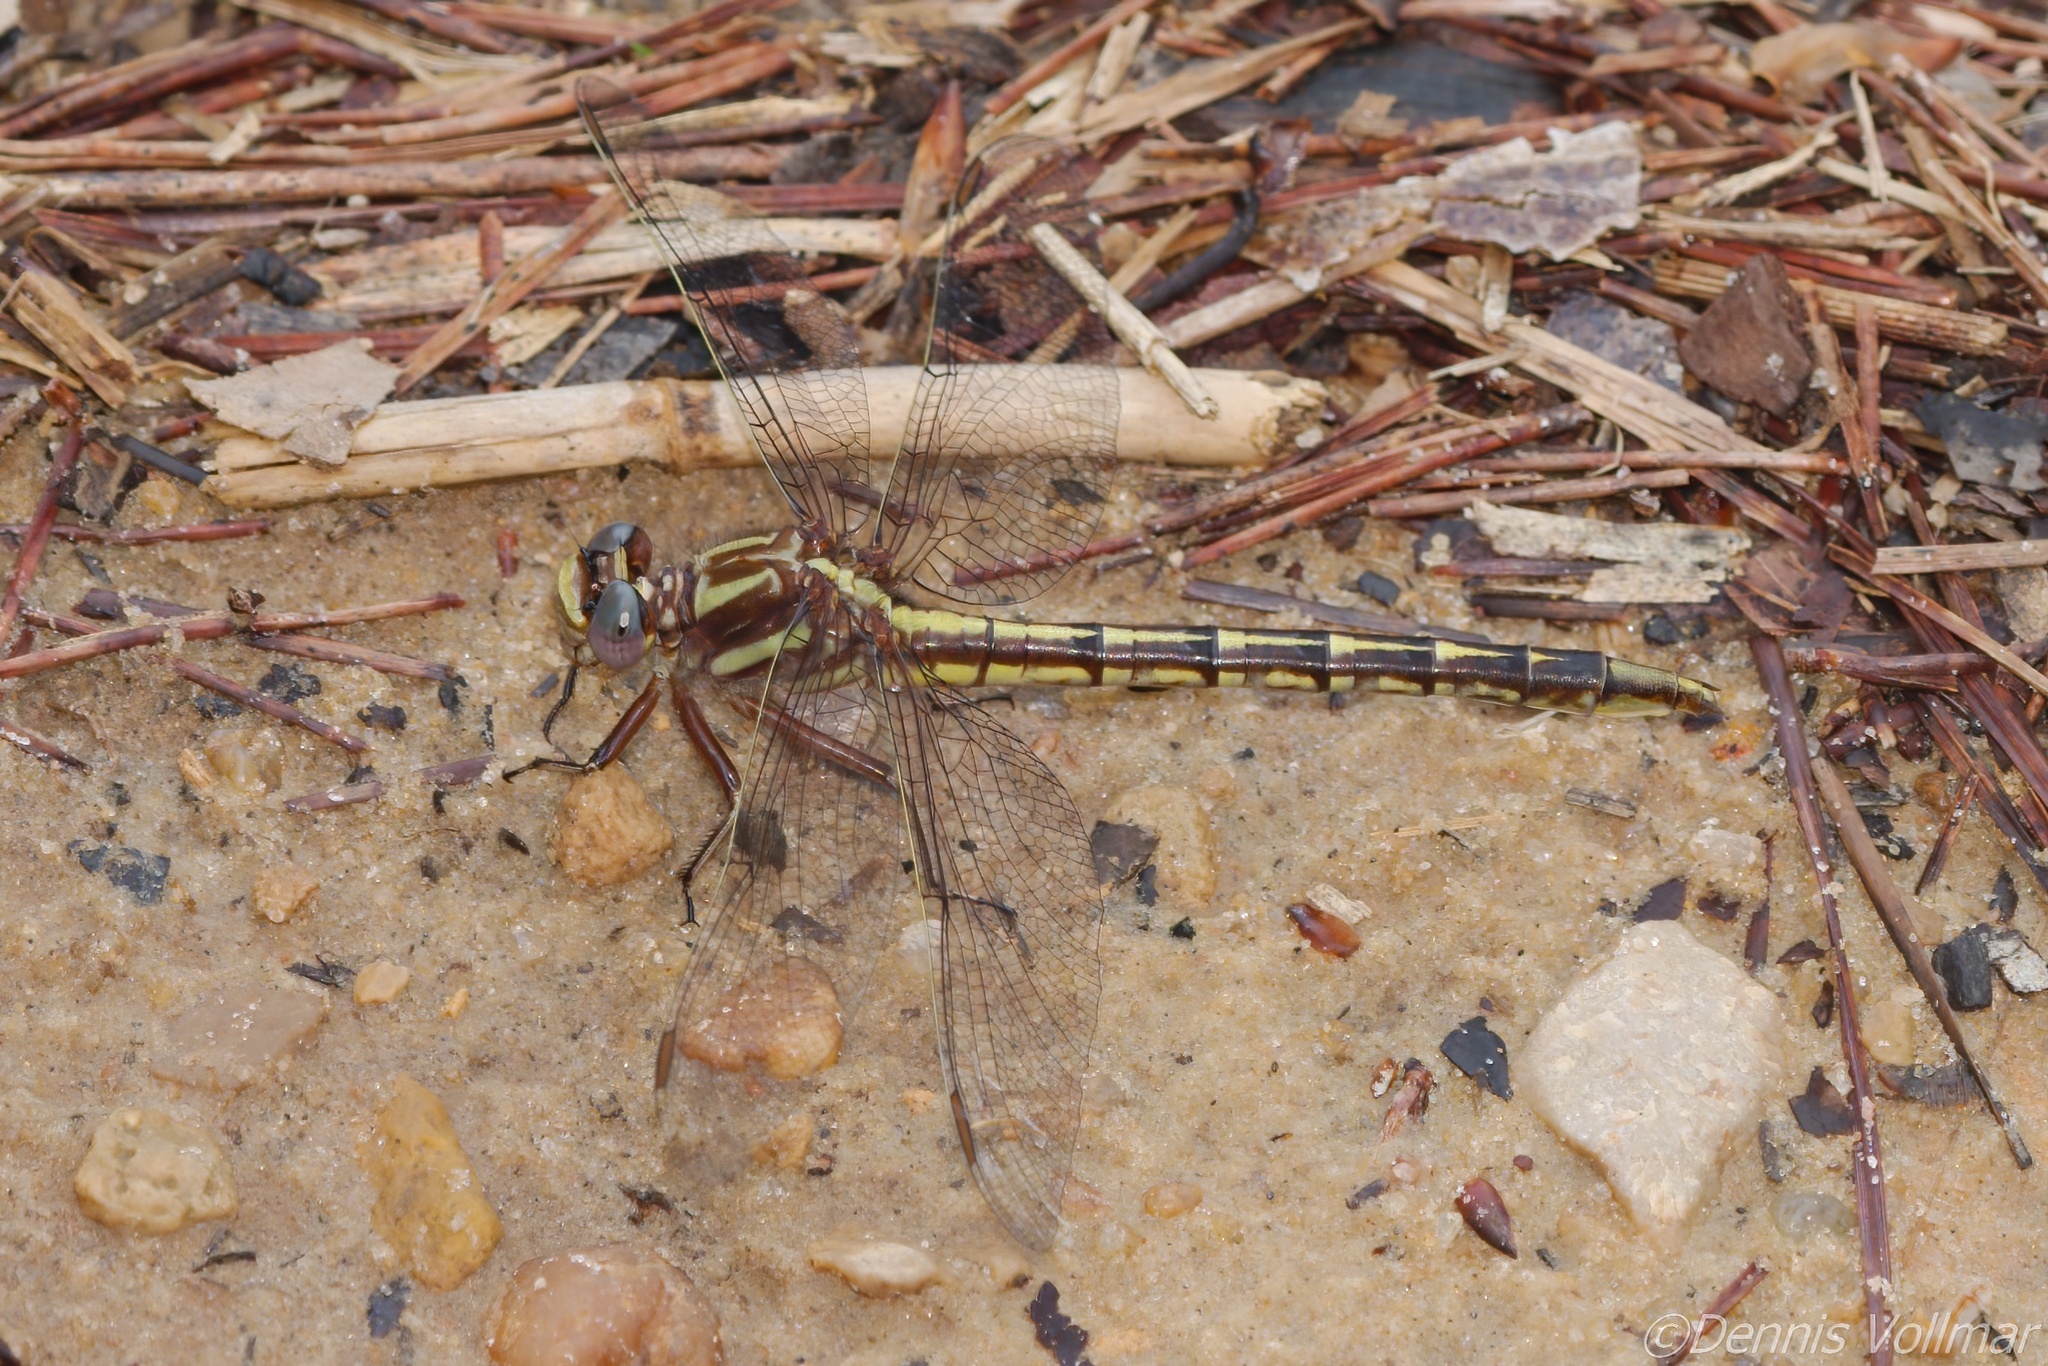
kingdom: Animalia
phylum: Arthropoda
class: Insecta
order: Odonata
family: Gomphidae
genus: Phanogomphus
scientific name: Phanogomphus lividus
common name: Ashy clubtail
